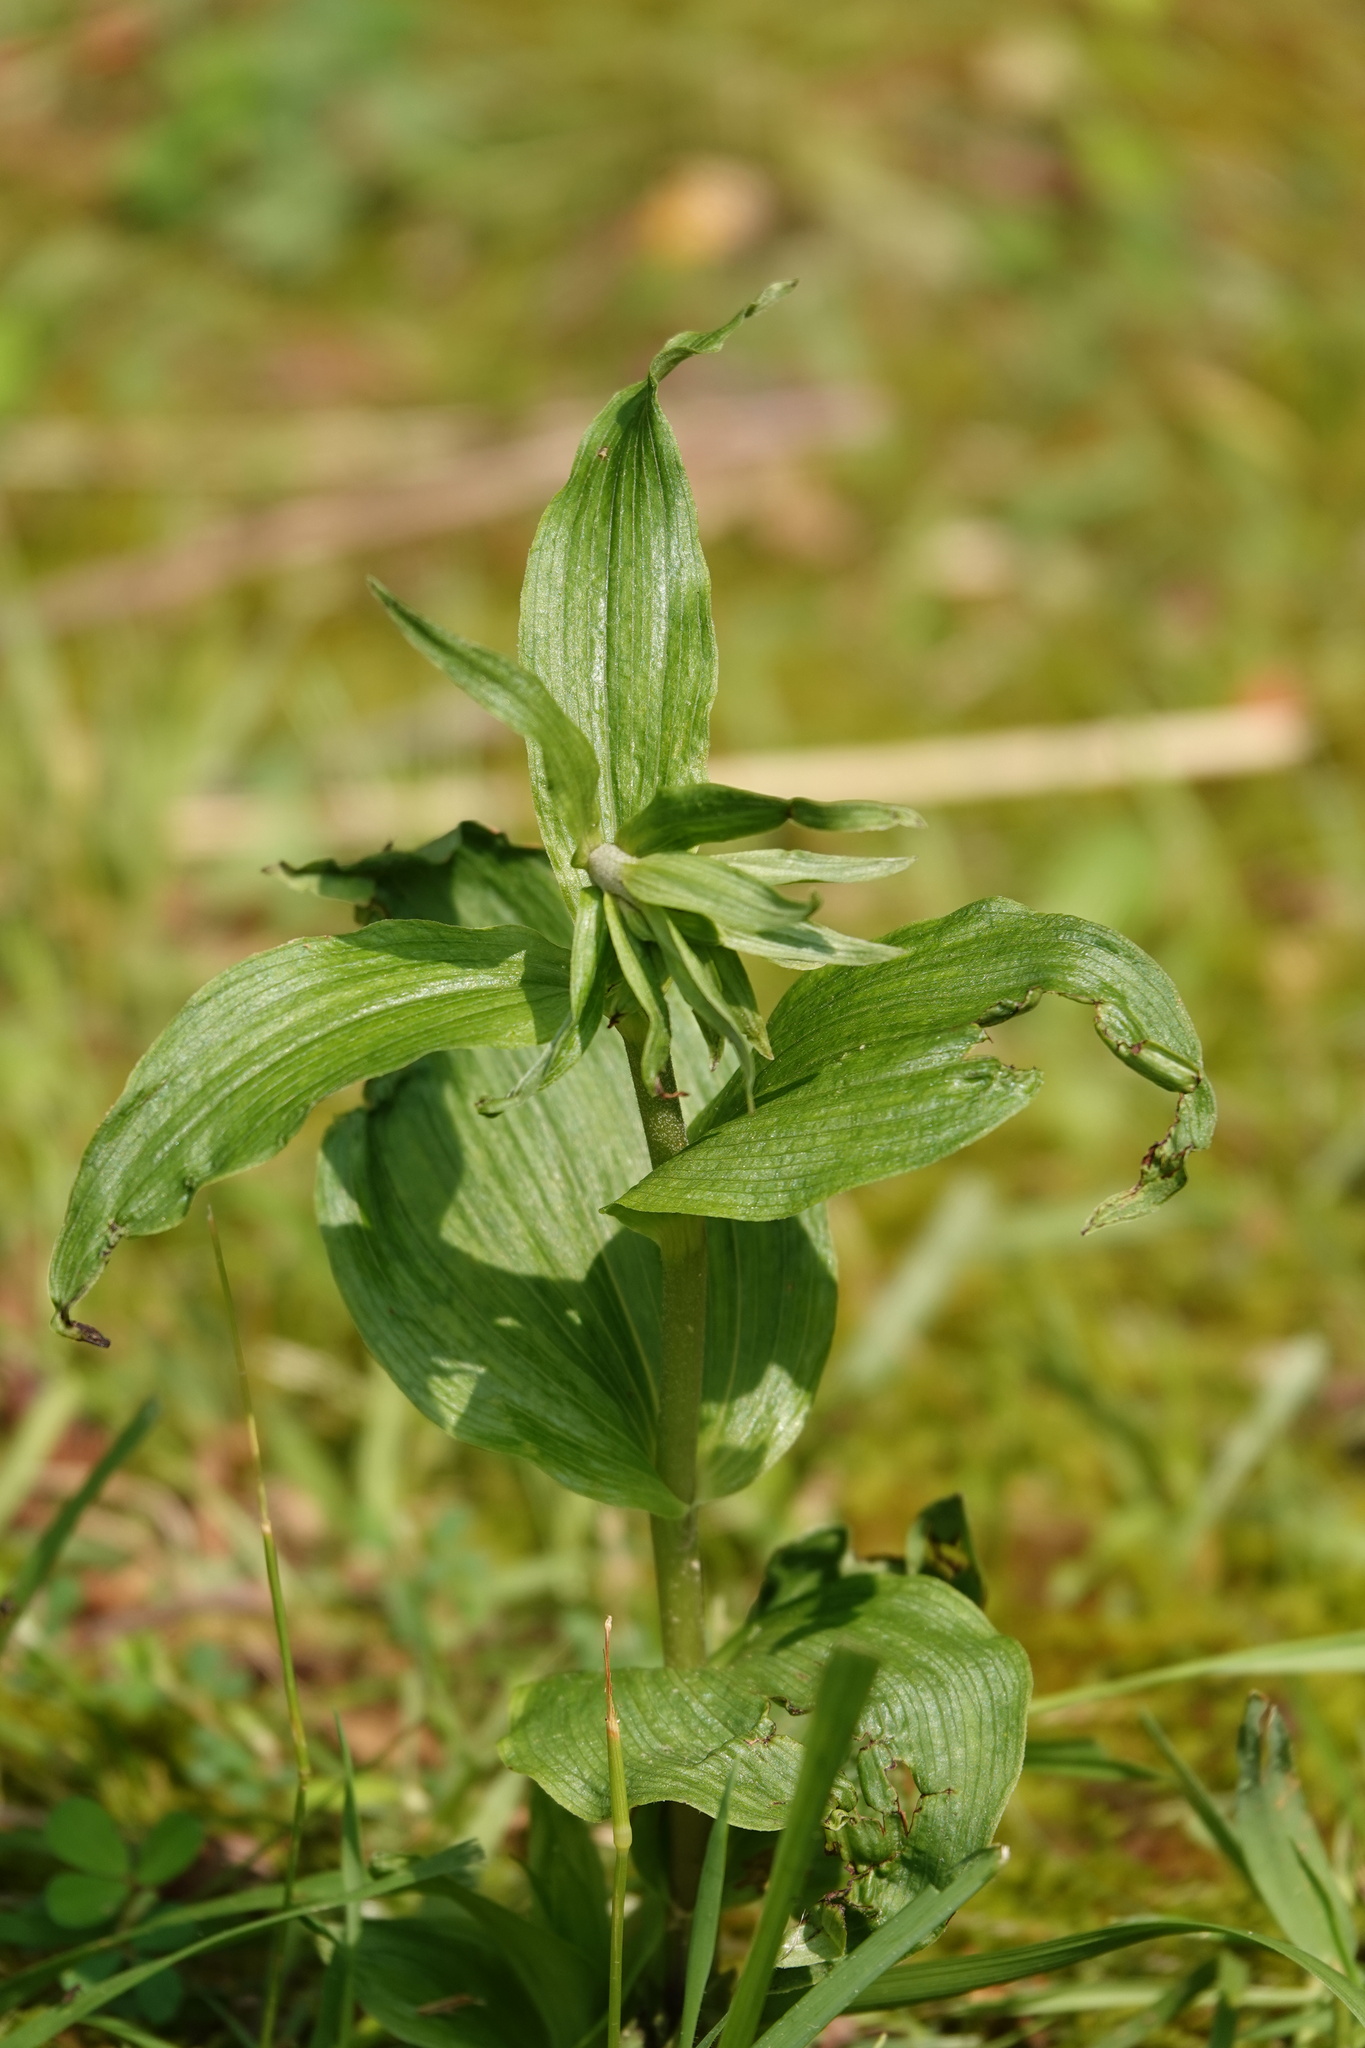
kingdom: Plantae
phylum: Tracheophyta
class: Liliopsida
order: Asparagales
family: Orchidaceae
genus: Epipactis
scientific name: Epipactis helleborine
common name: Broad-leaved helleborine
